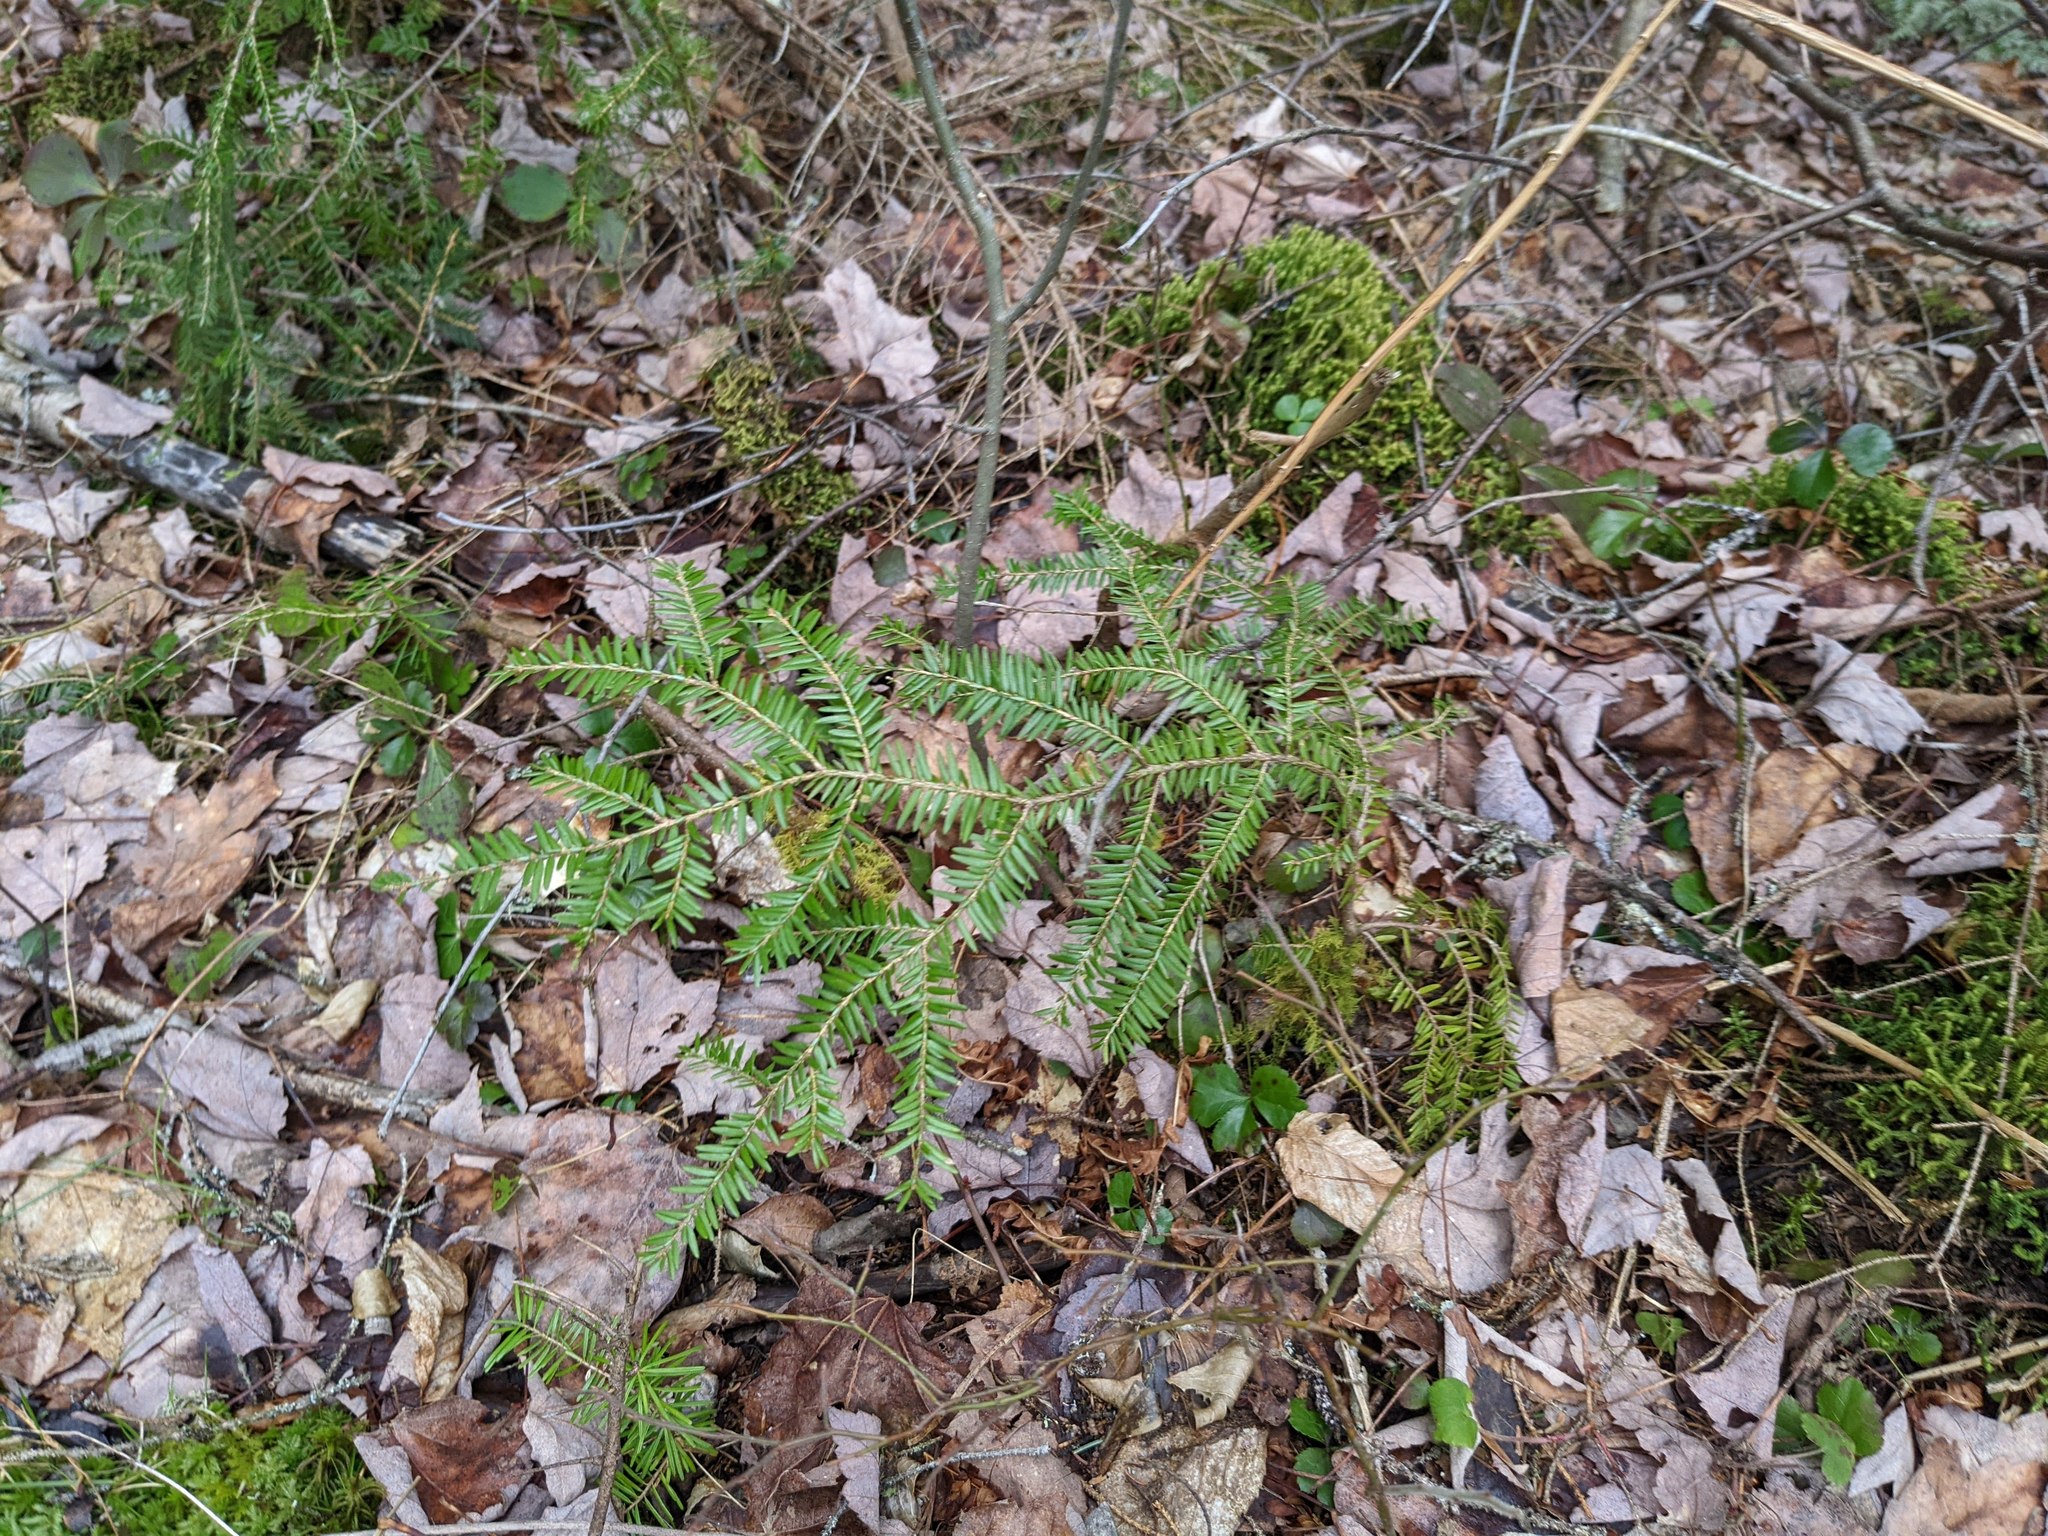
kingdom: Plantae
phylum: Tracheophyta
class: Pinopsida
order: Pinales
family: Pinaceae
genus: Tsuga
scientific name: Tsuga canadensis
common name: Eastern hemlock
